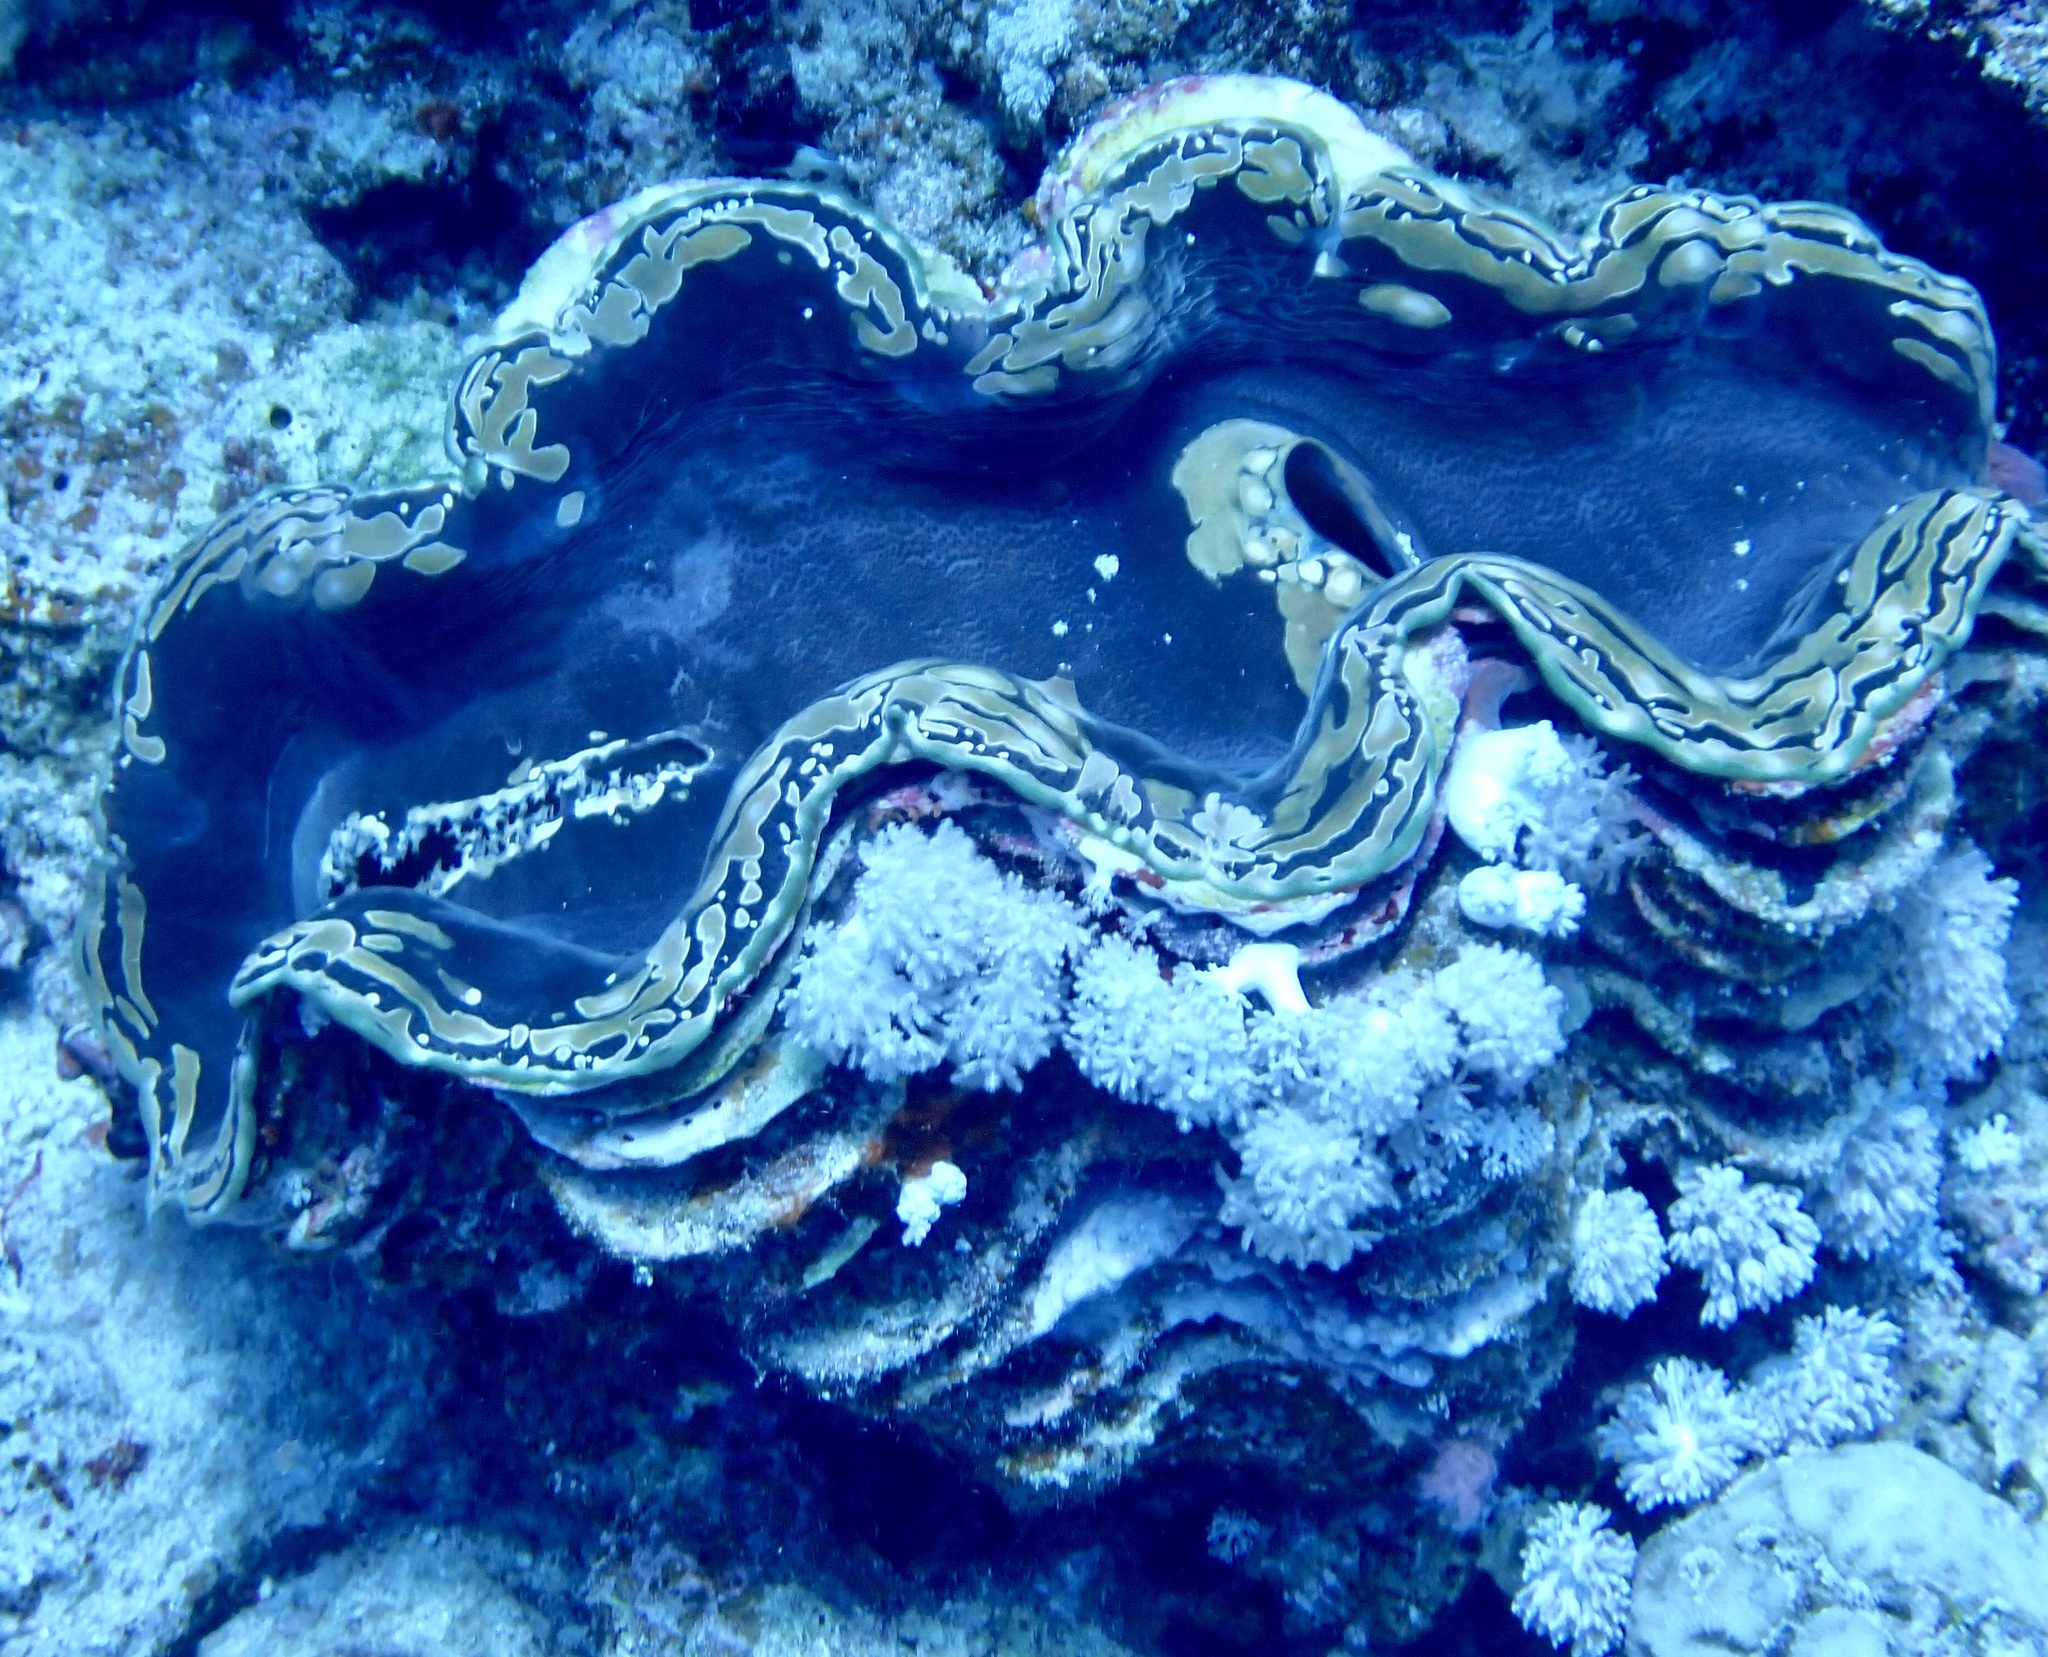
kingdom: Animalia
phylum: Mollusca
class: Bivalvia
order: Cardiida
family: Cardiidae
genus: Tridacna
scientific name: Tridacna squamosa
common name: Fluted clam
